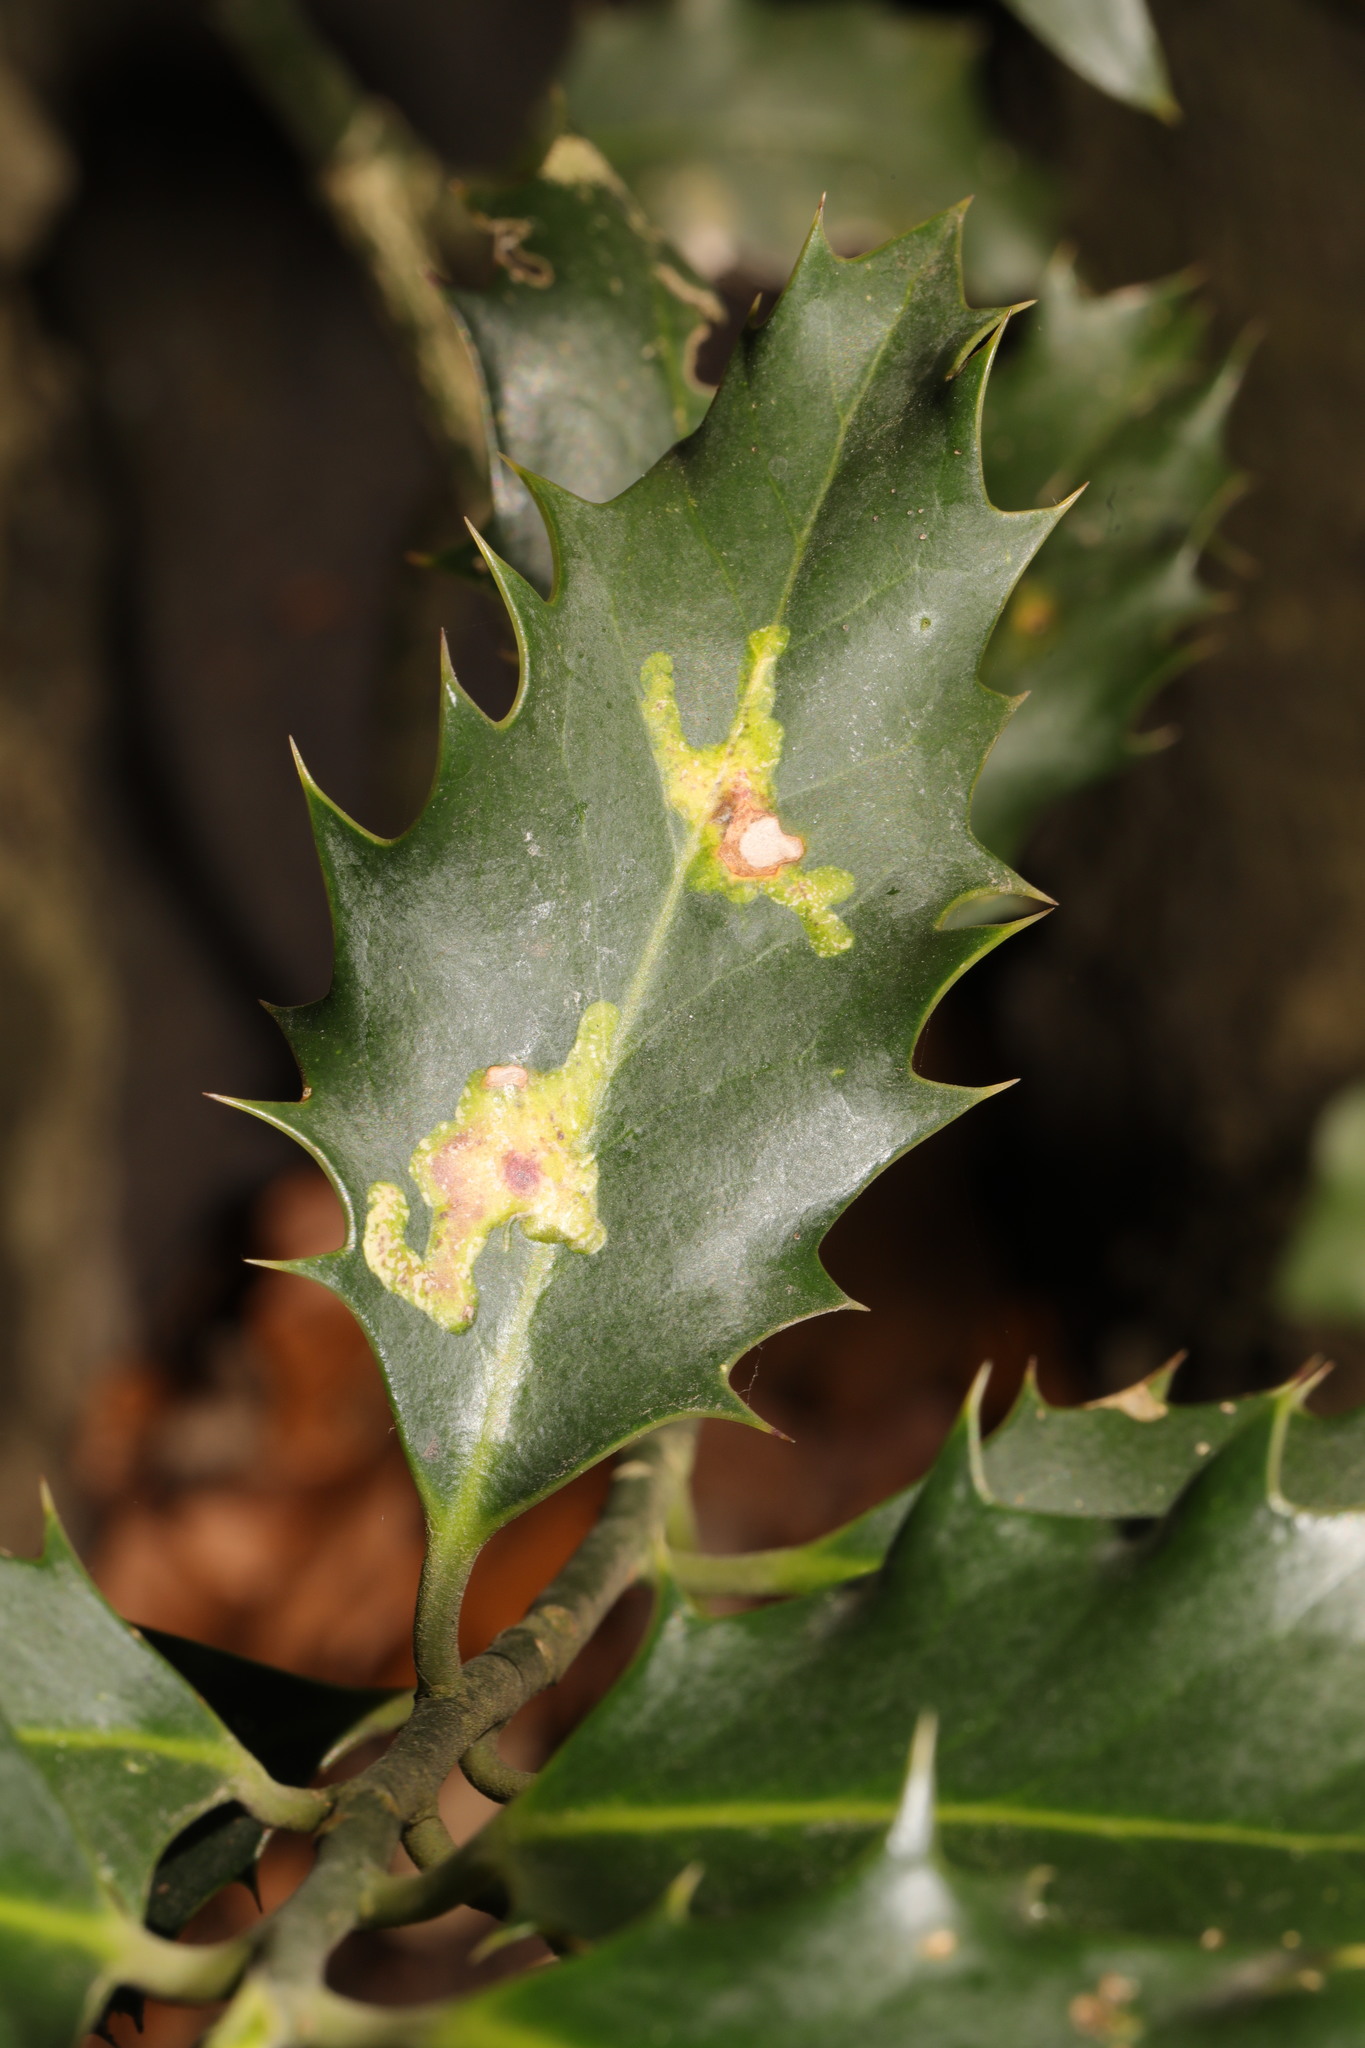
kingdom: Animalia
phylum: Arthropoda
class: Insecta
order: Diptera
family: Agromyzidae
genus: Phytomyza
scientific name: Phytomyza ilicis
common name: Holly leafminer
